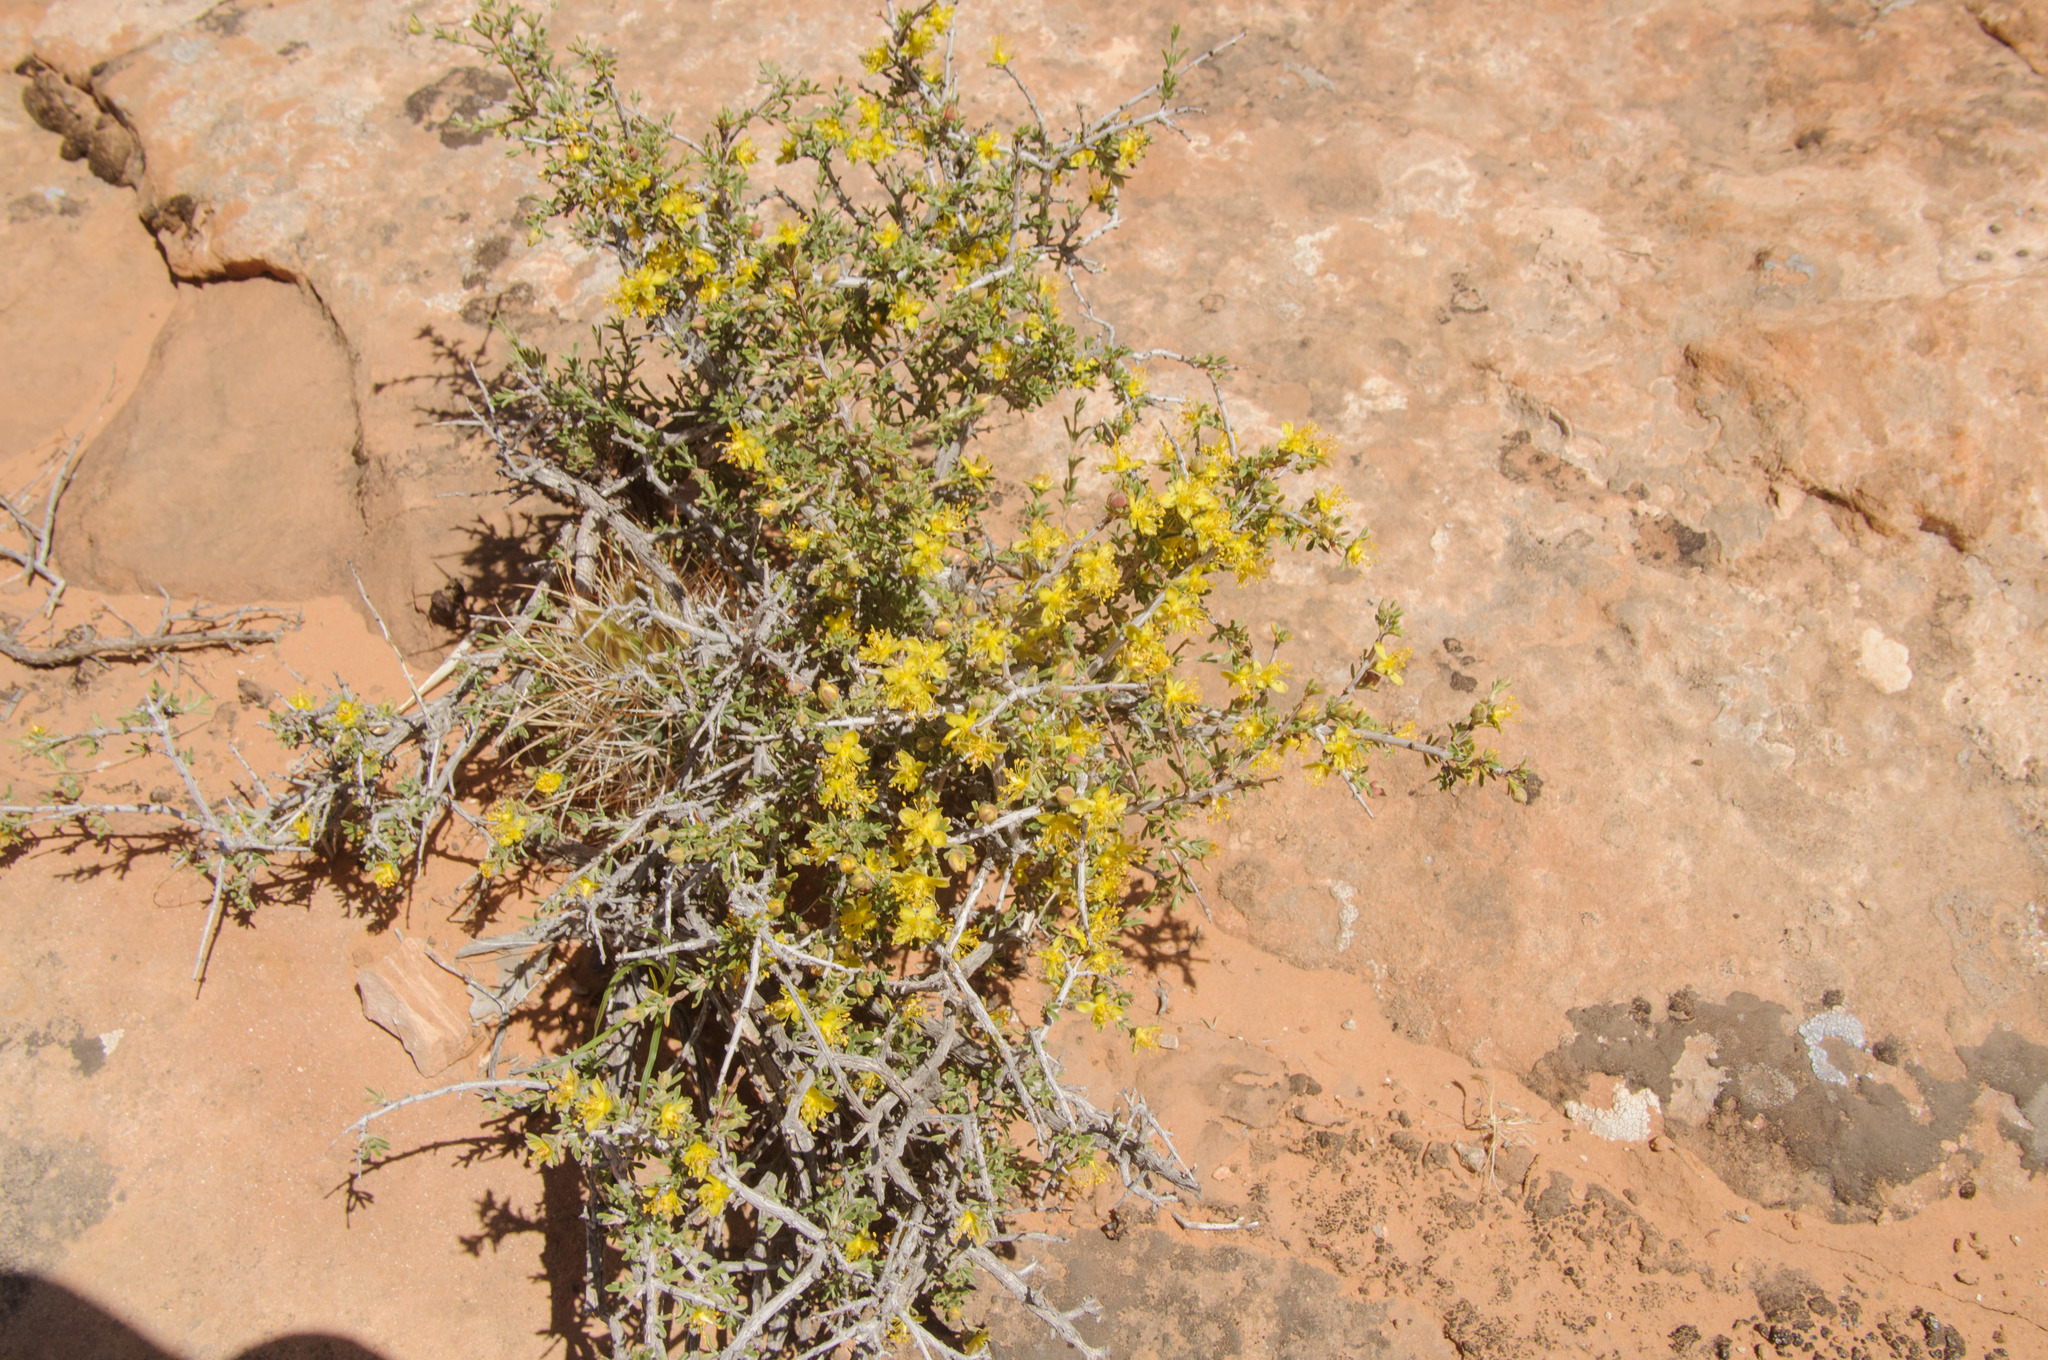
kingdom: Plantae
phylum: Tracheophyta
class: Magnoliopsida
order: Rosales
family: Rosaceae
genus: Coleogyne
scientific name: Coleogyne ramosissima
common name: Blackbrush
